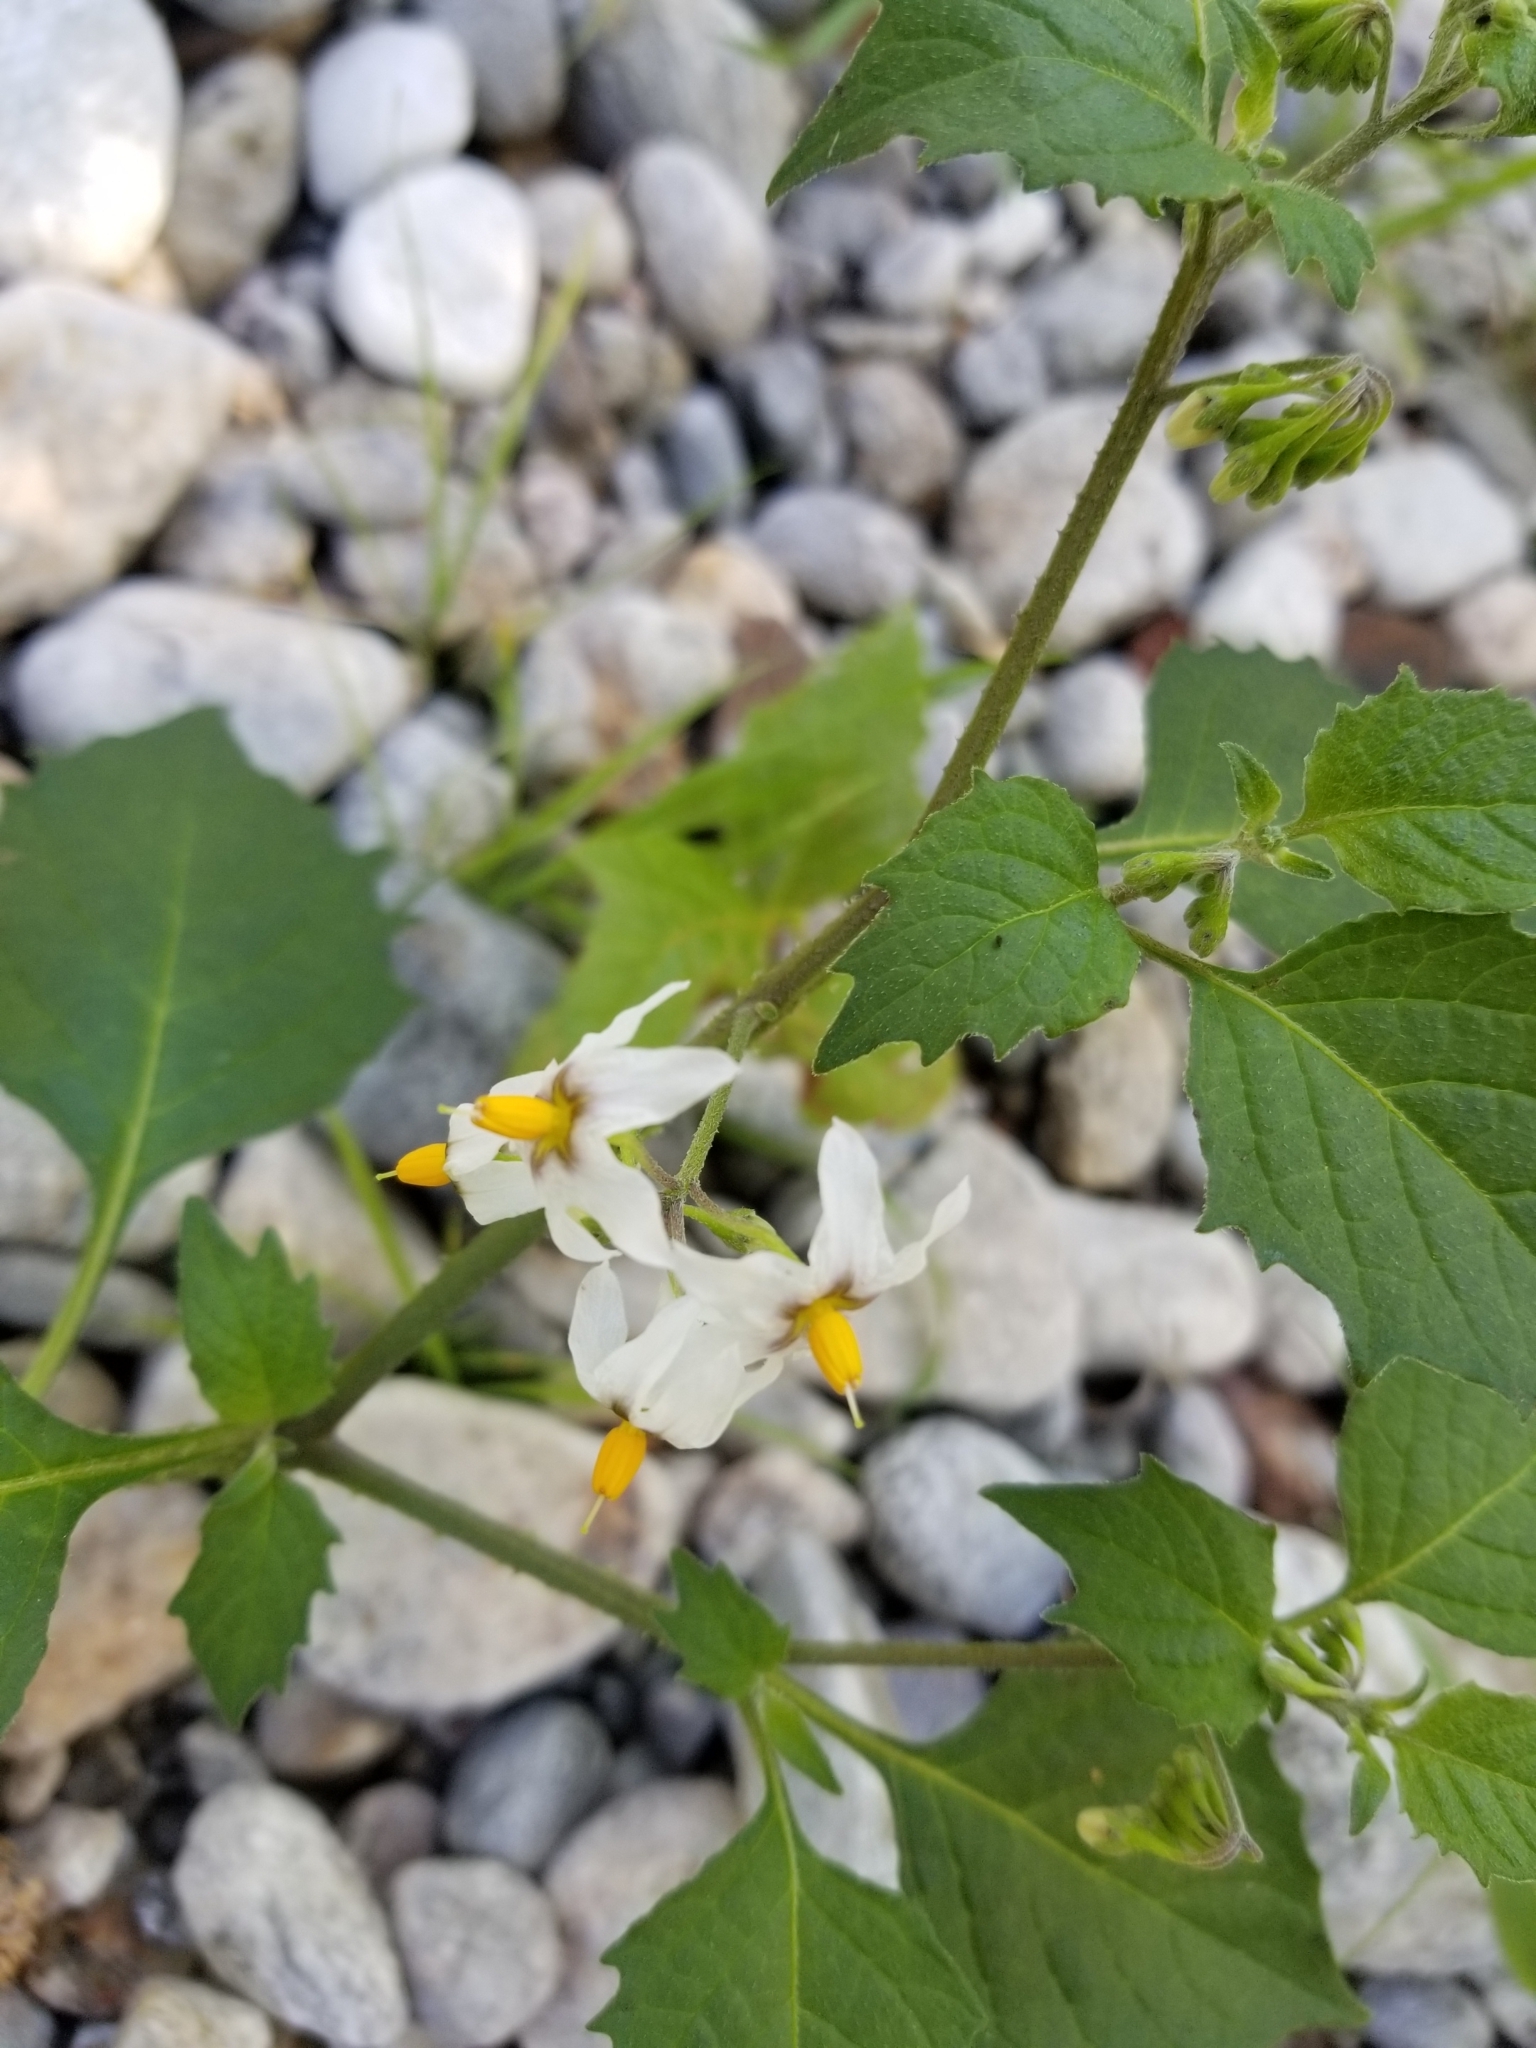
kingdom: Plantae
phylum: Tracheophyta
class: Magnoliopsida
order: Solanales
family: Solanaceae
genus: Solanum
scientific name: Solanum douglasii
